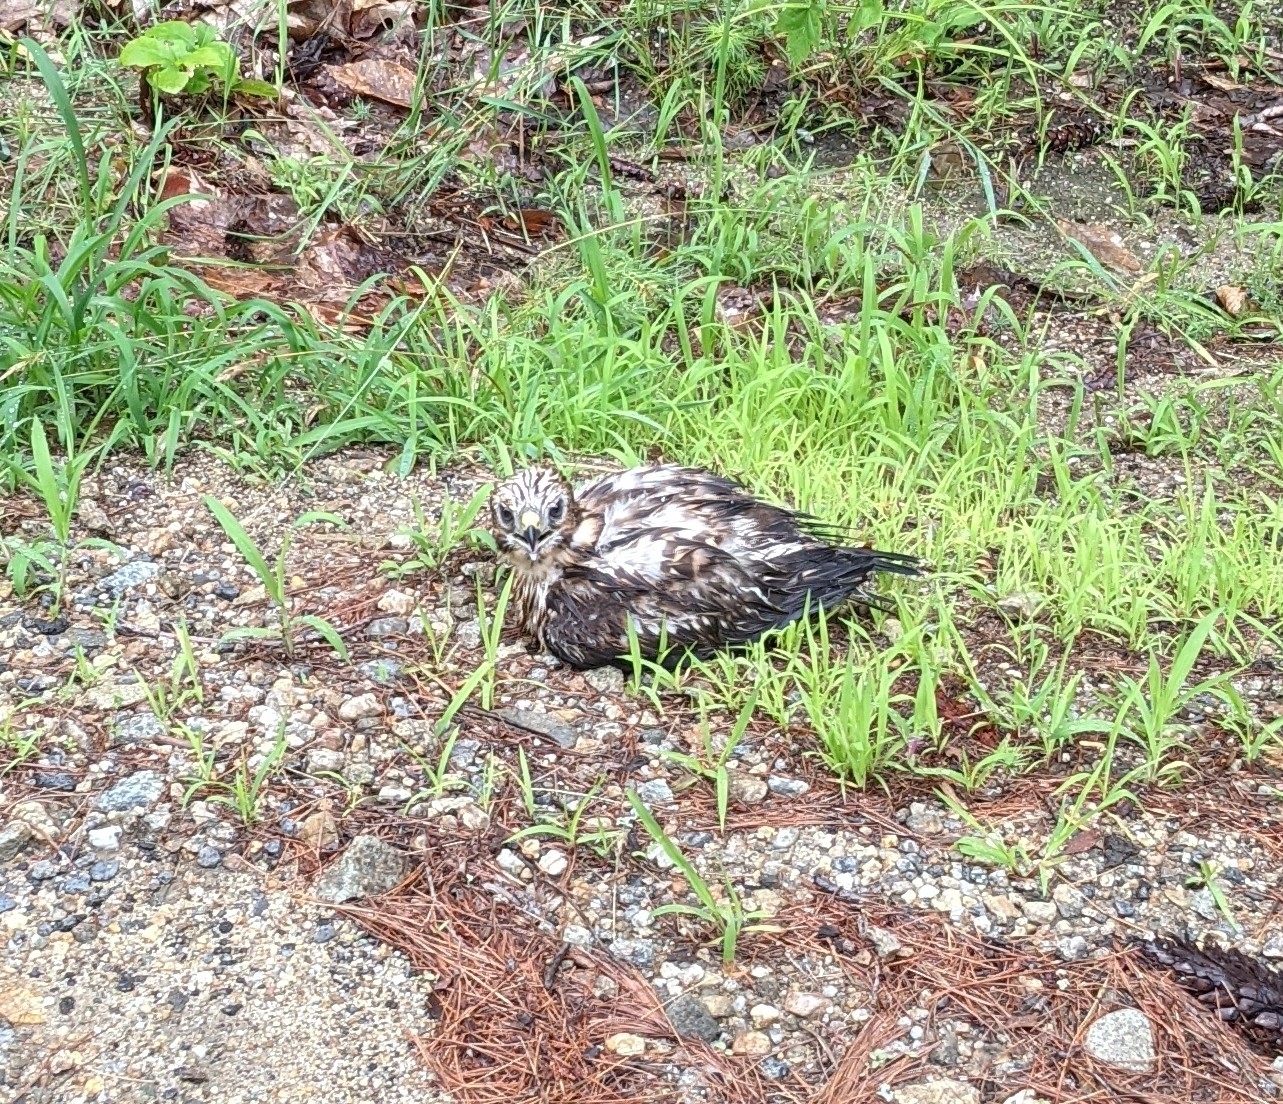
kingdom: Animalia
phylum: Chordata
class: Aves
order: Accipitriformes
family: Accipitridae
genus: Buteo
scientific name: Buteo jamaicensis
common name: Red-tailed hawk
